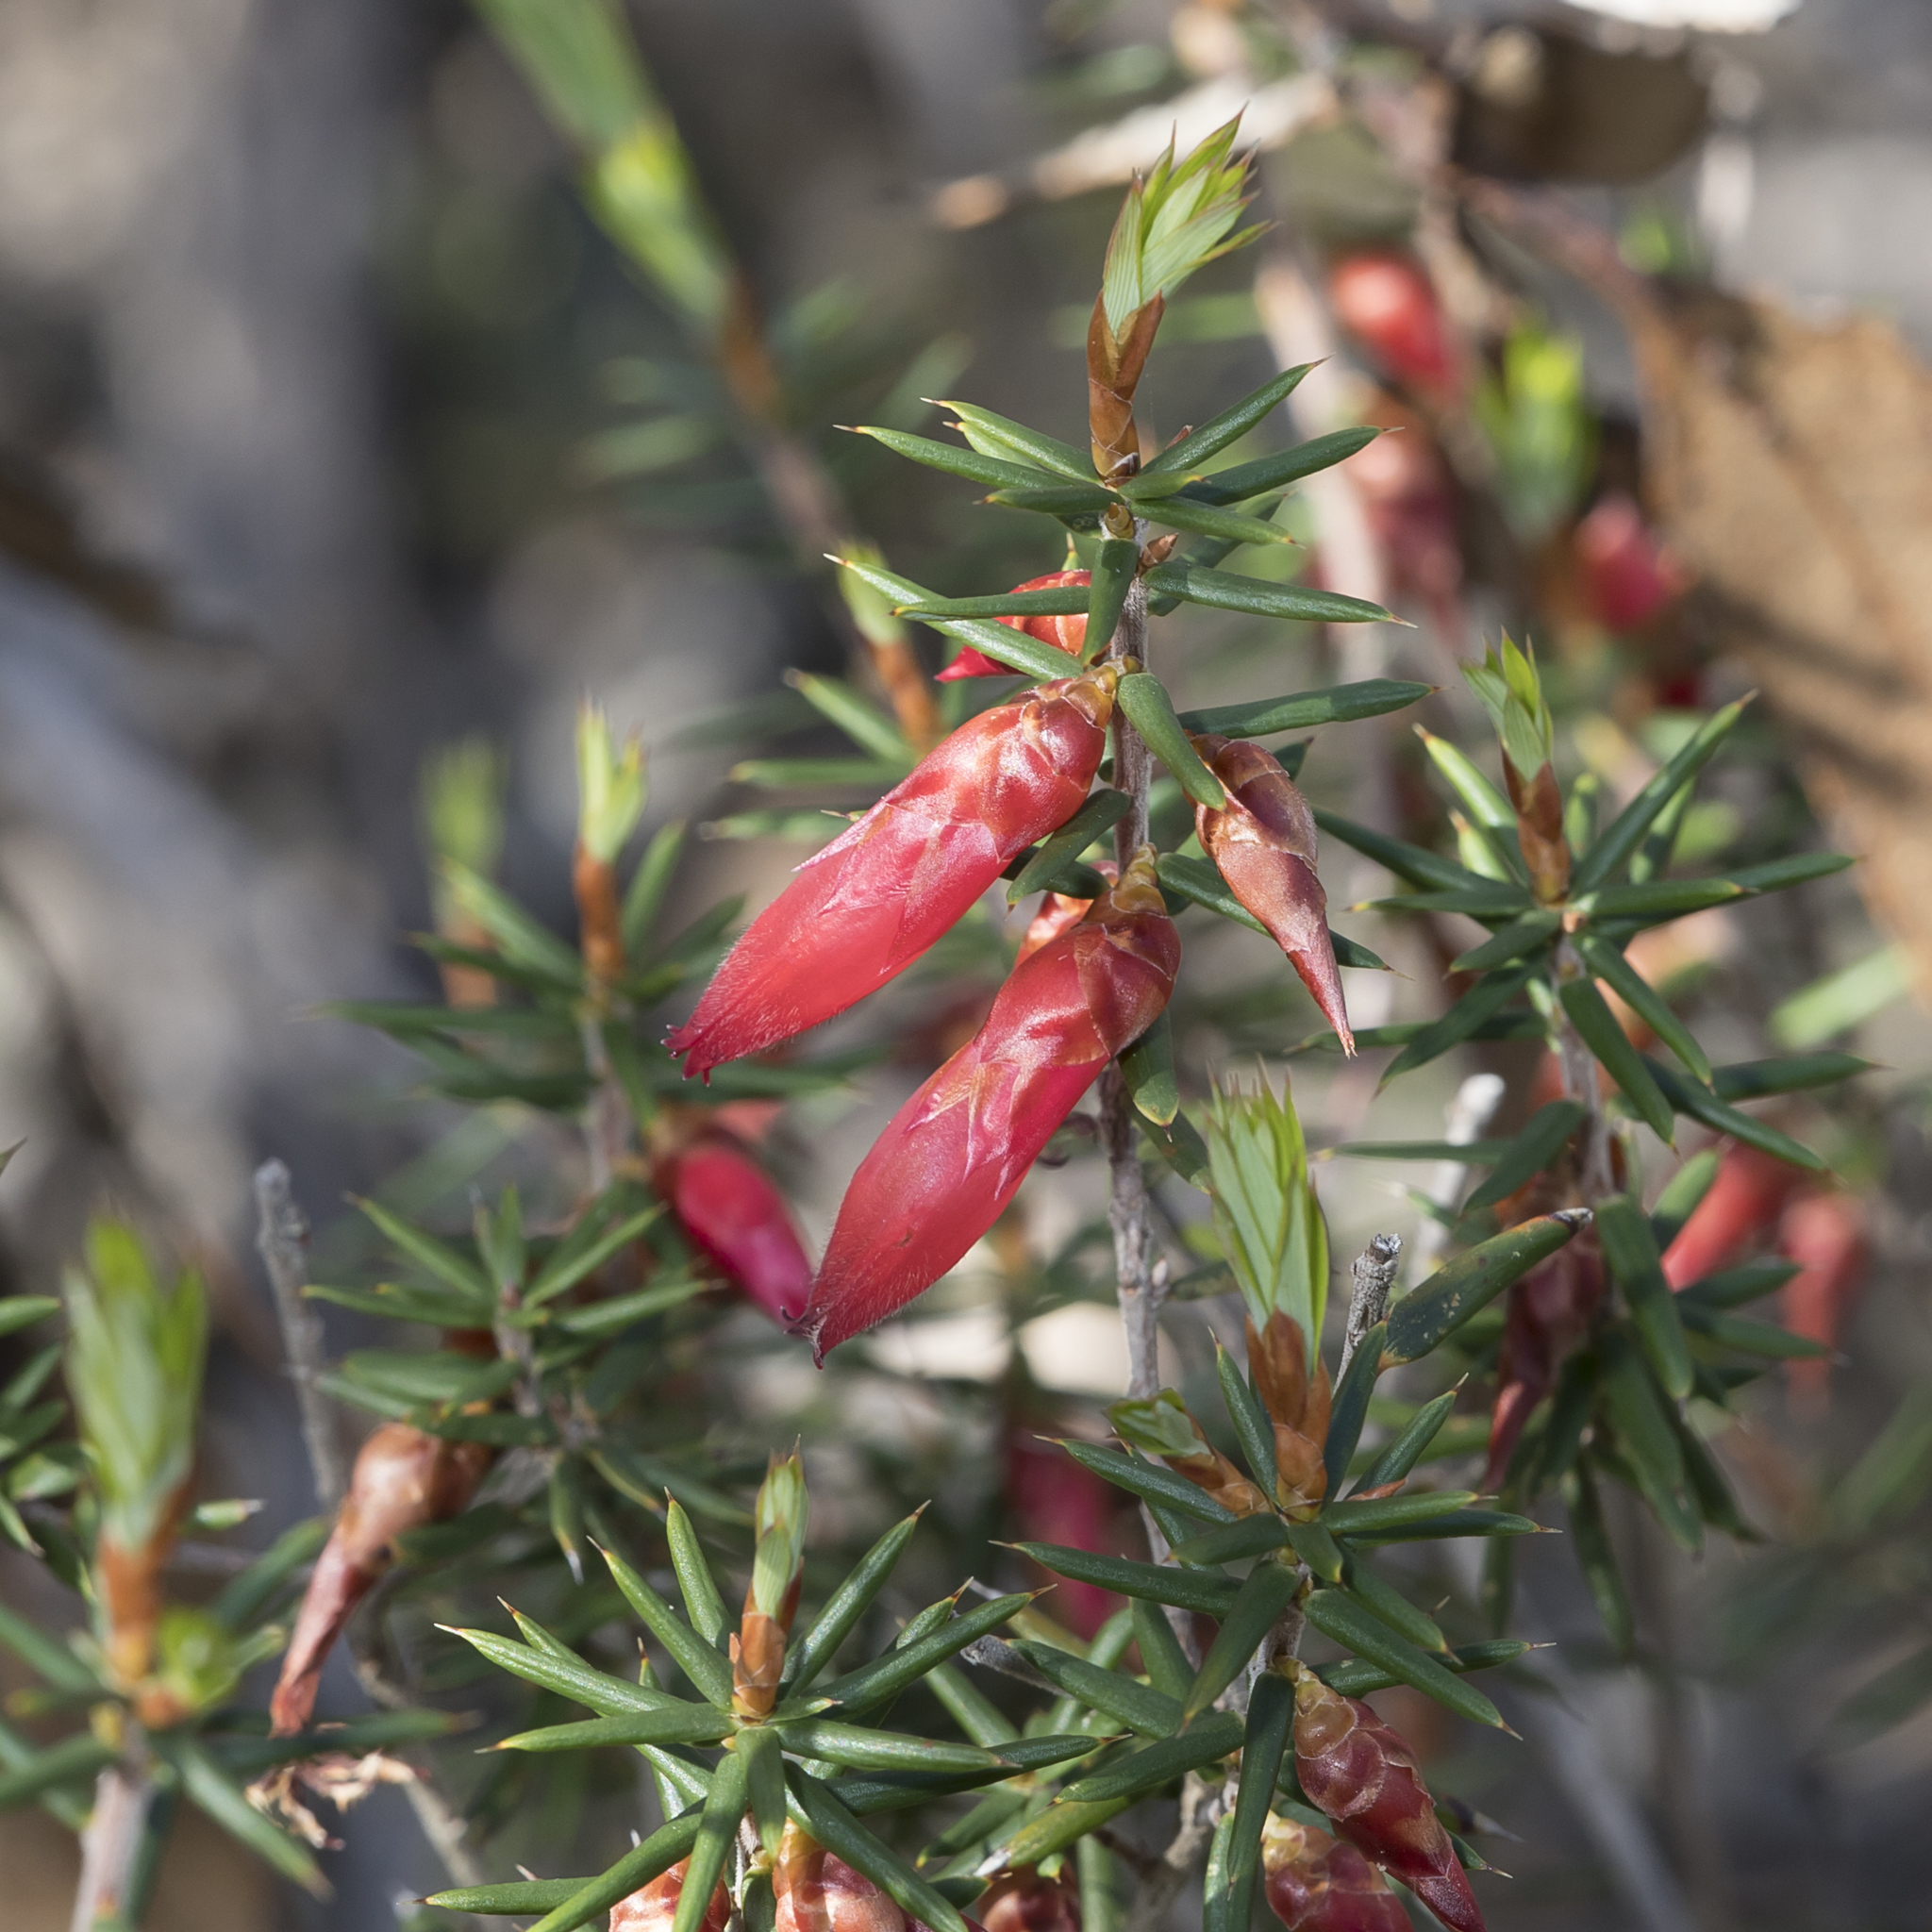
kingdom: Plantae
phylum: Tracheophyta
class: Magnoliopsida
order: Ericales
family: Ericaceae
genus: Stenanthera
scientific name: Stenanthera conostephioides
